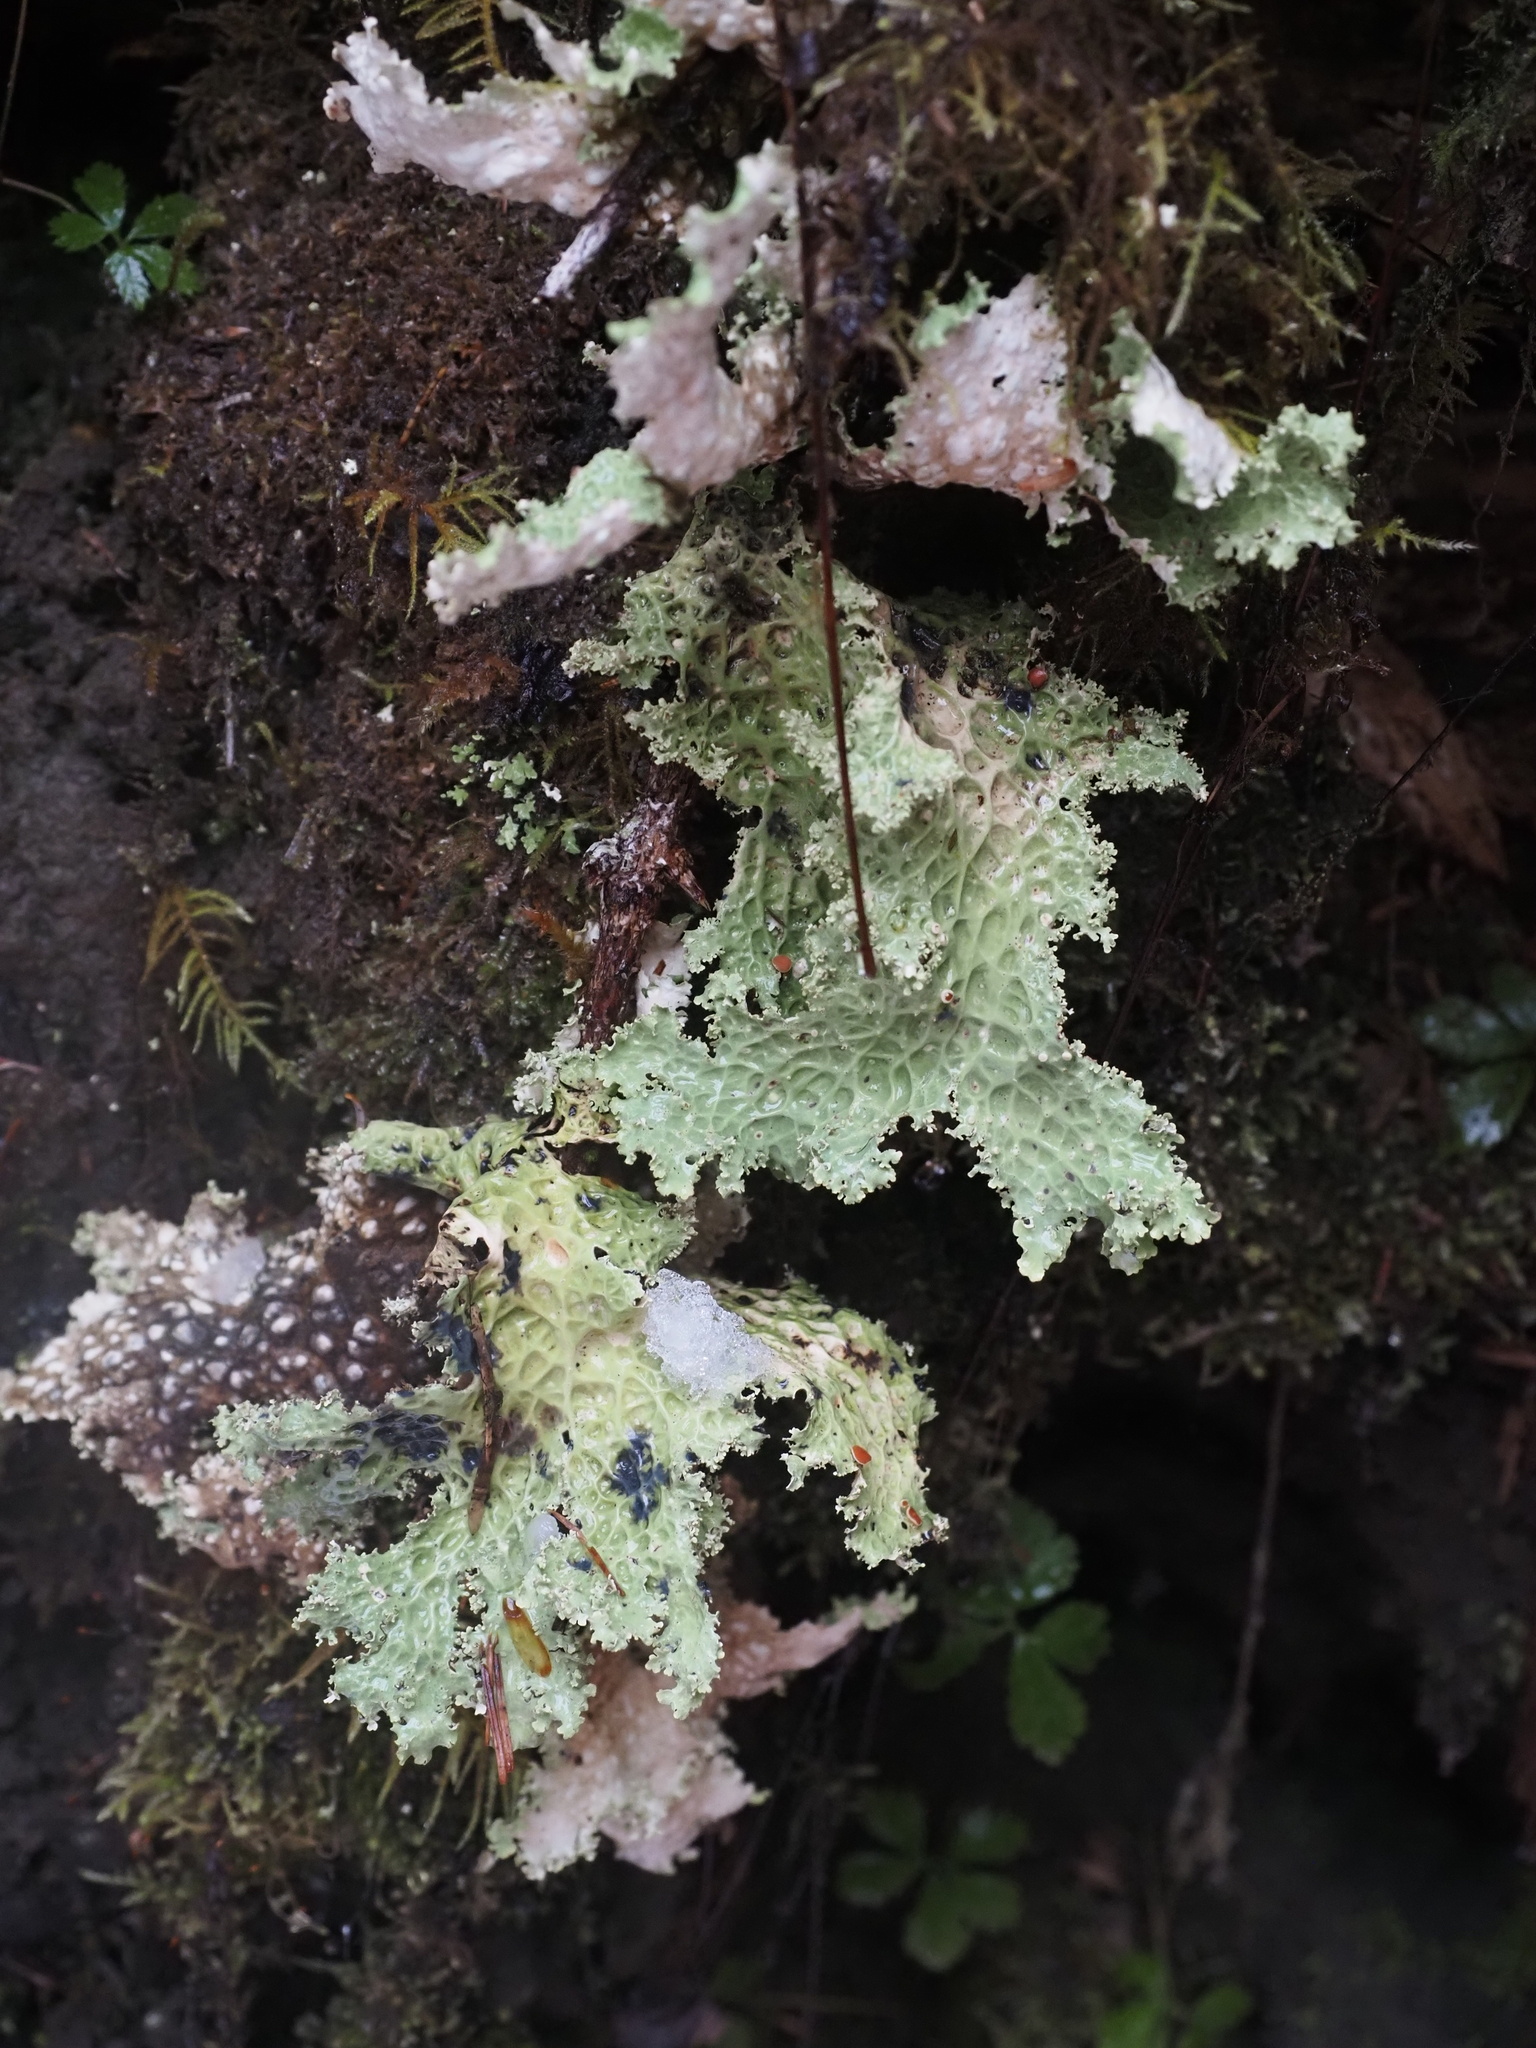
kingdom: Fungi
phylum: Ascomycota
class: Lecanoromycetes
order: Peltigerales
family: Lobariaceae
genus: Lobaria
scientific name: Lobaria oregana
